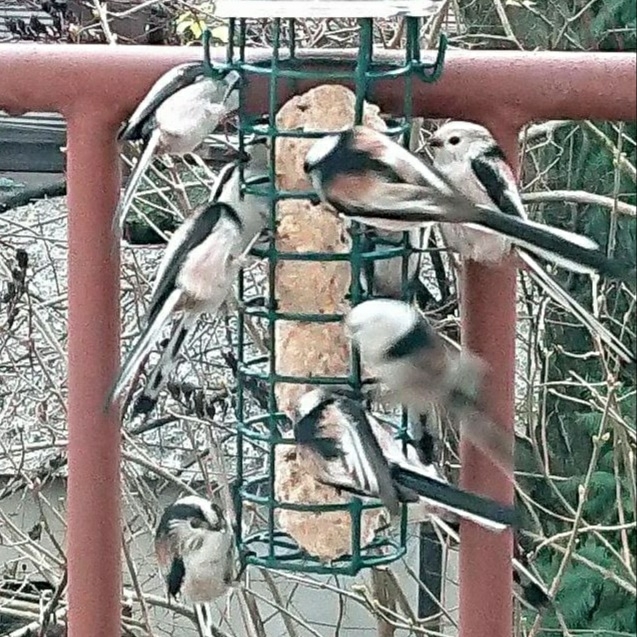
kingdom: Animalia
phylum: Chordata
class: Aves
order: Passeriformes
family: Aegithalidae
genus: Aegithalos
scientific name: Aegithalos caudatus
